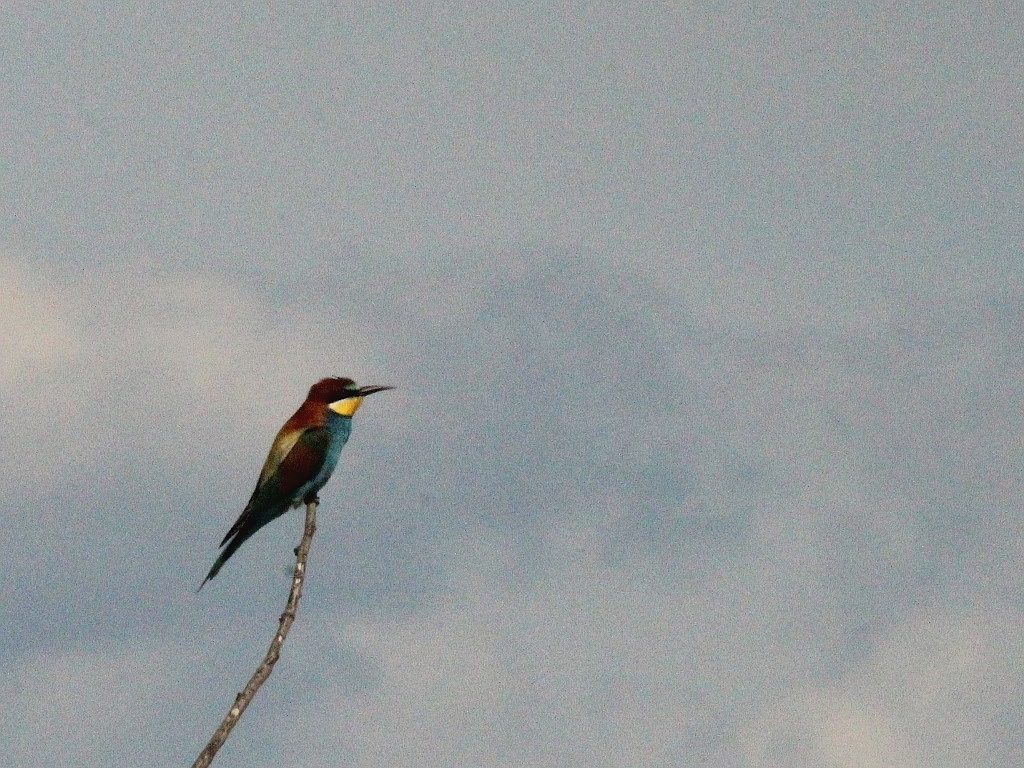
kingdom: Animalia
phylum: Chordata
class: Aves
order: Coraciiformes
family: Meropidae
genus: Merops
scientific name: Merops apiaster
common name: European bee-eater
